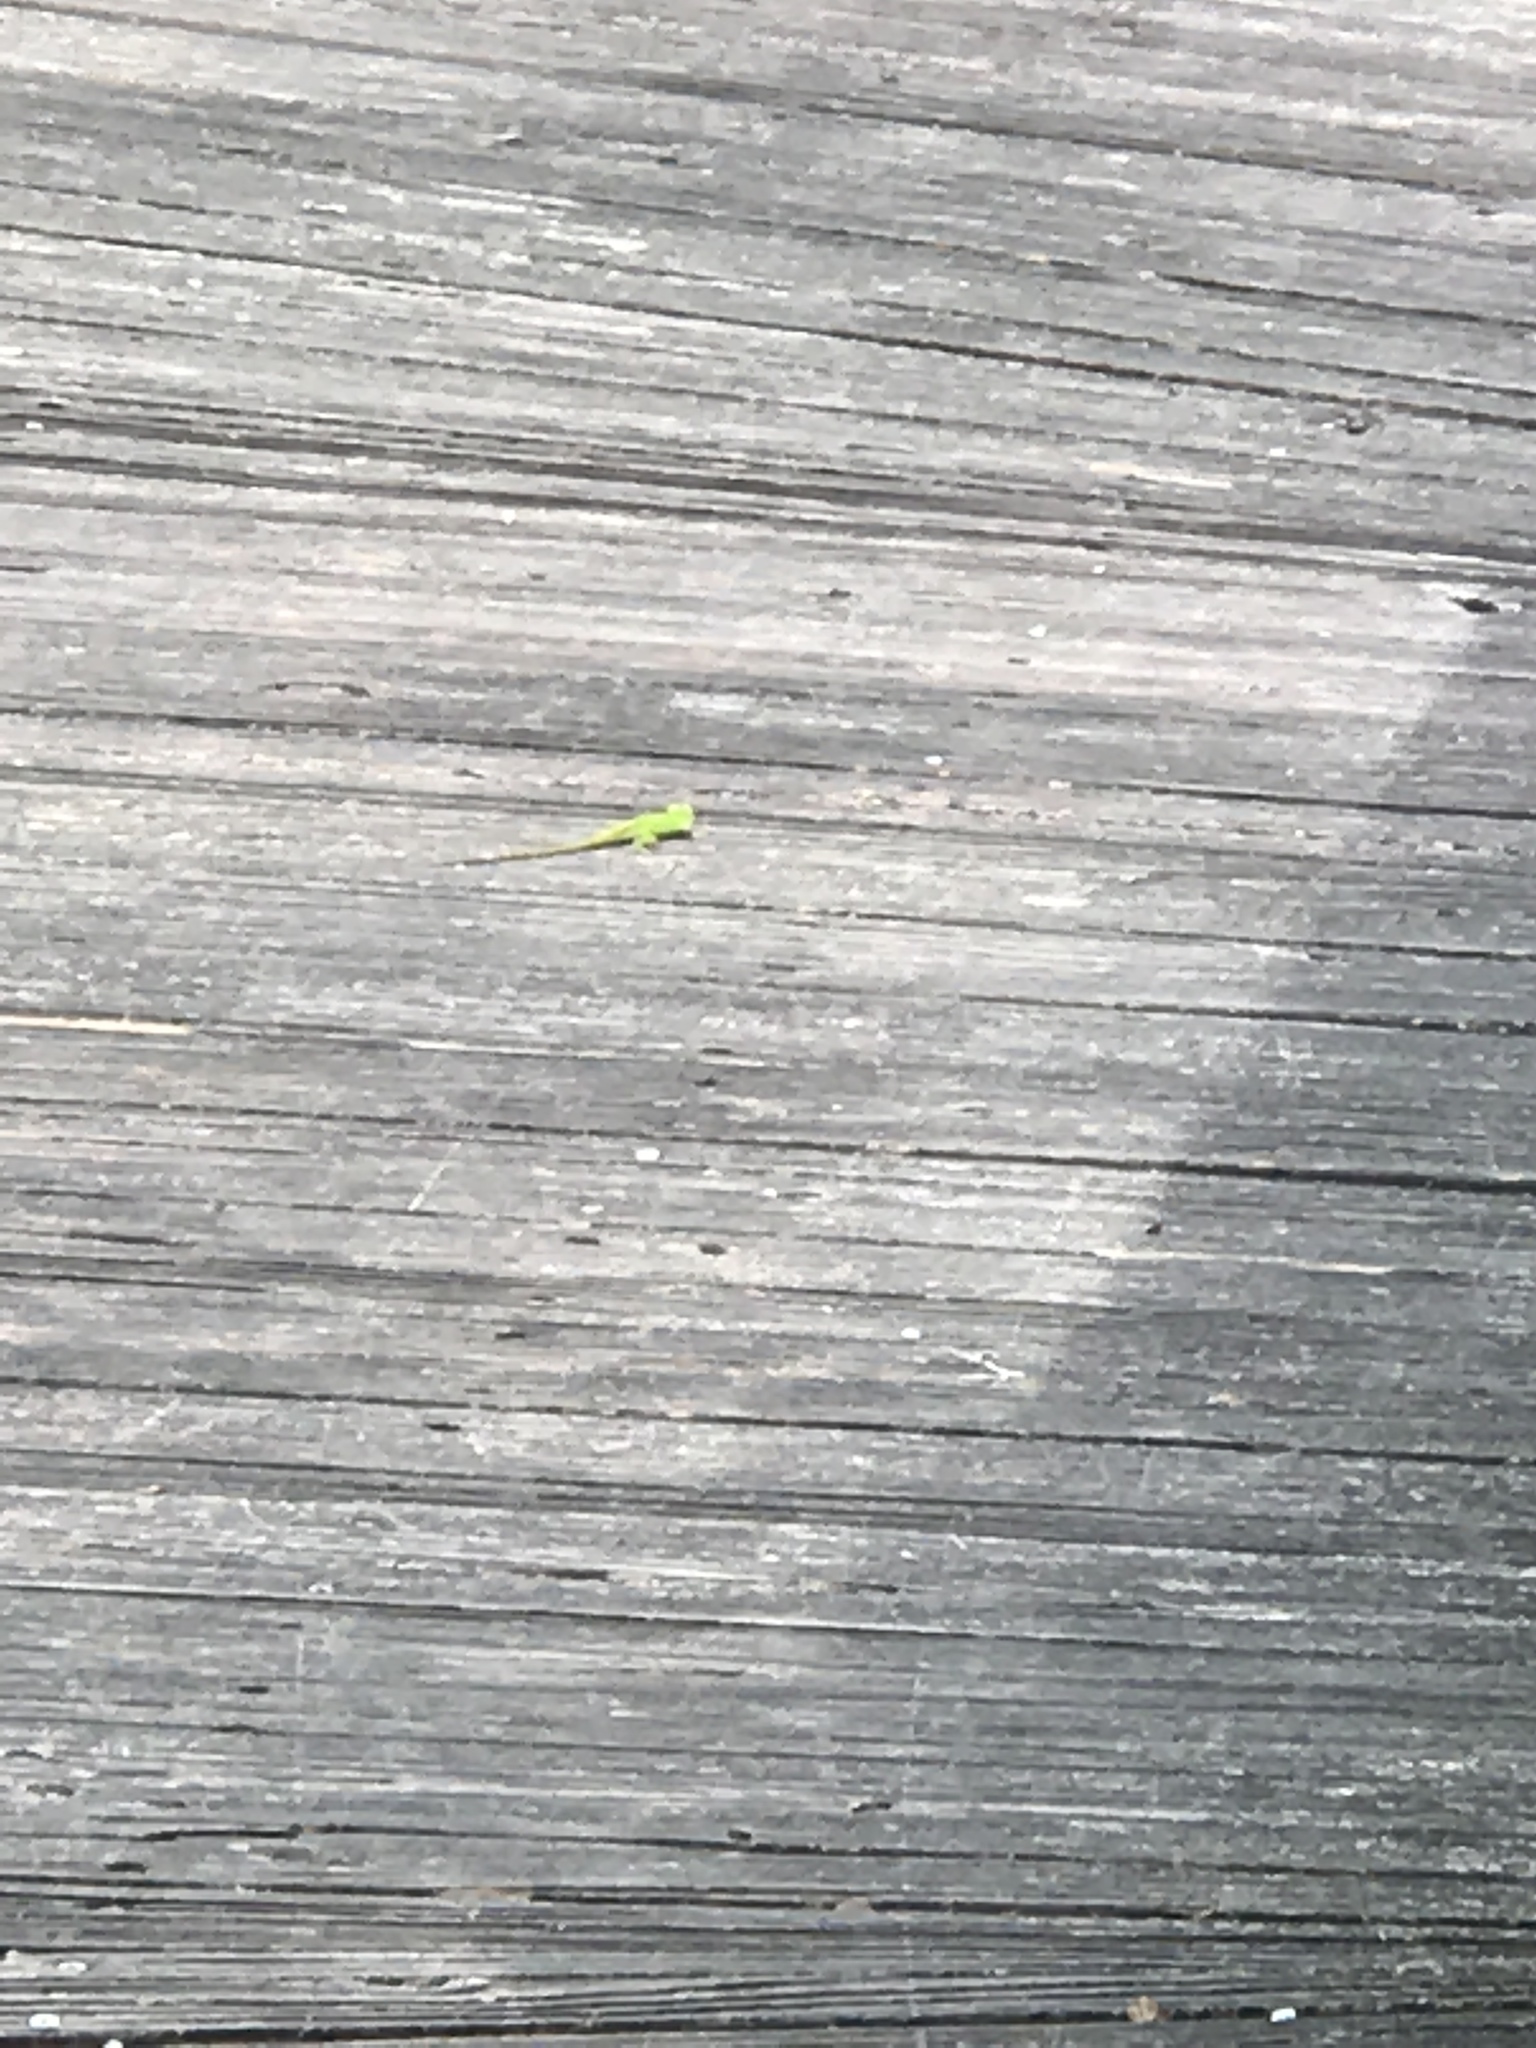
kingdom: Animalia
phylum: Chordata
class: Squamata
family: Dactyloidae
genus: Anolis
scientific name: Anolis carolinensis
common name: Green anole
